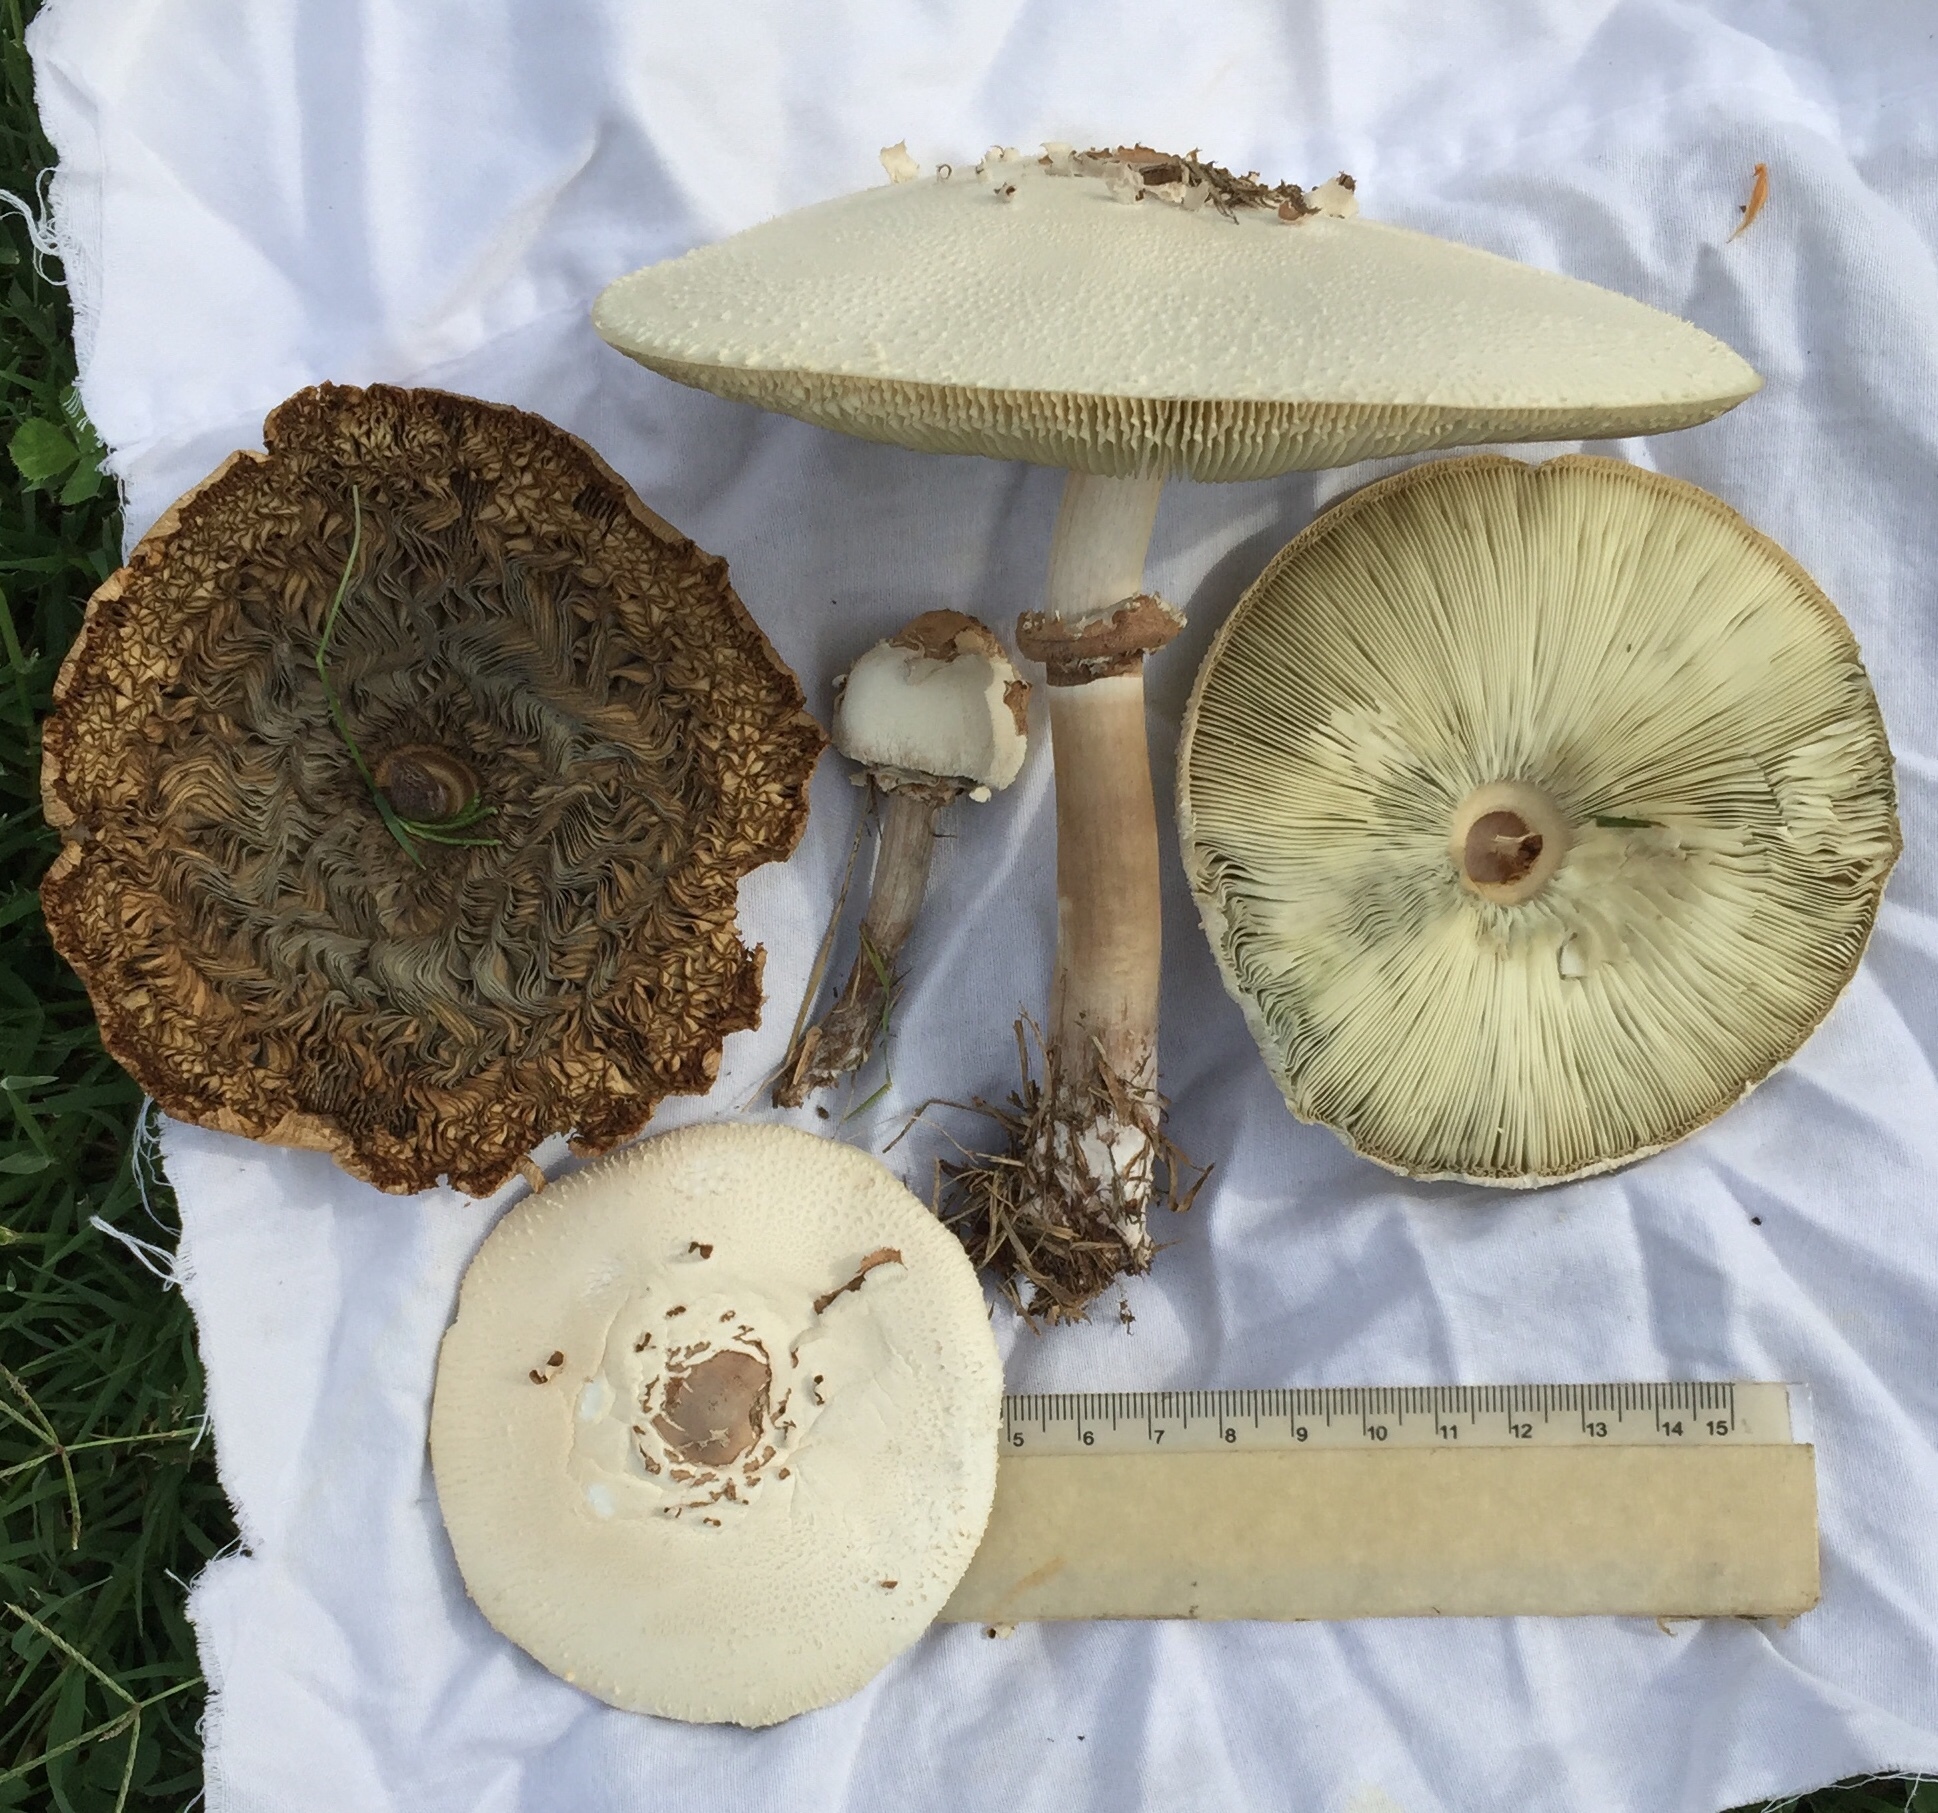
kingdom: Fungi
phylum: Basidiomycota
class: Agaricomycetes
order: Agaricales
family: Agaricaceae
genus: Chlorophyllum
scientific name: Chlorophyllum molybdites
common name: False parasol
